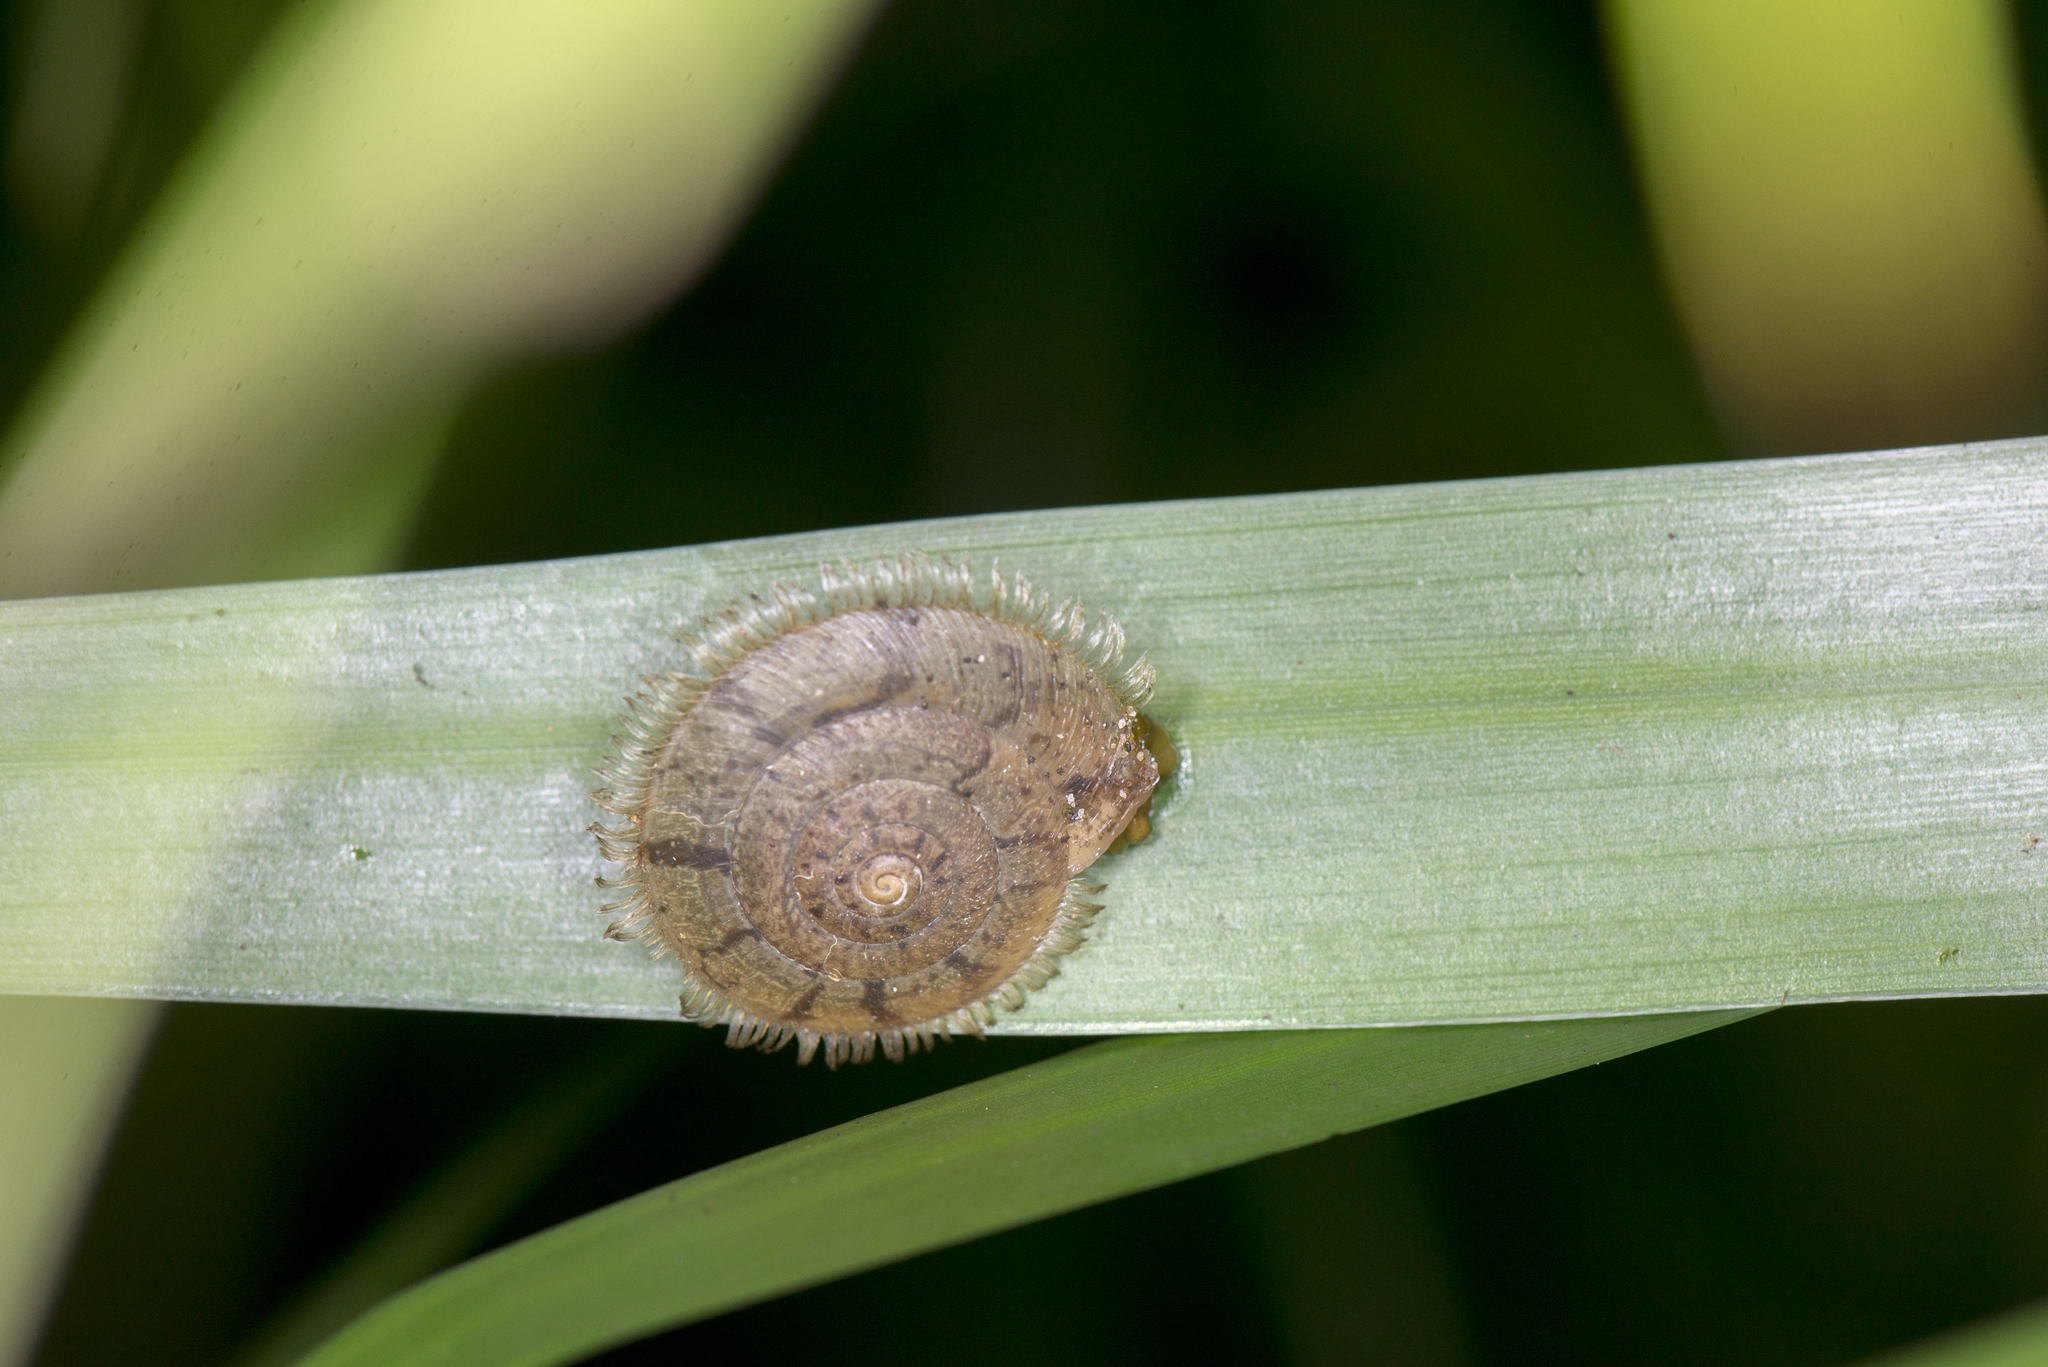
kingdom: Animalia
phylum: Mollusca
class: Gastropoda
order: Stylommatophora
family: Camaenidae
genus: Plectotropis
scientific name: Plectotropis mackensii
